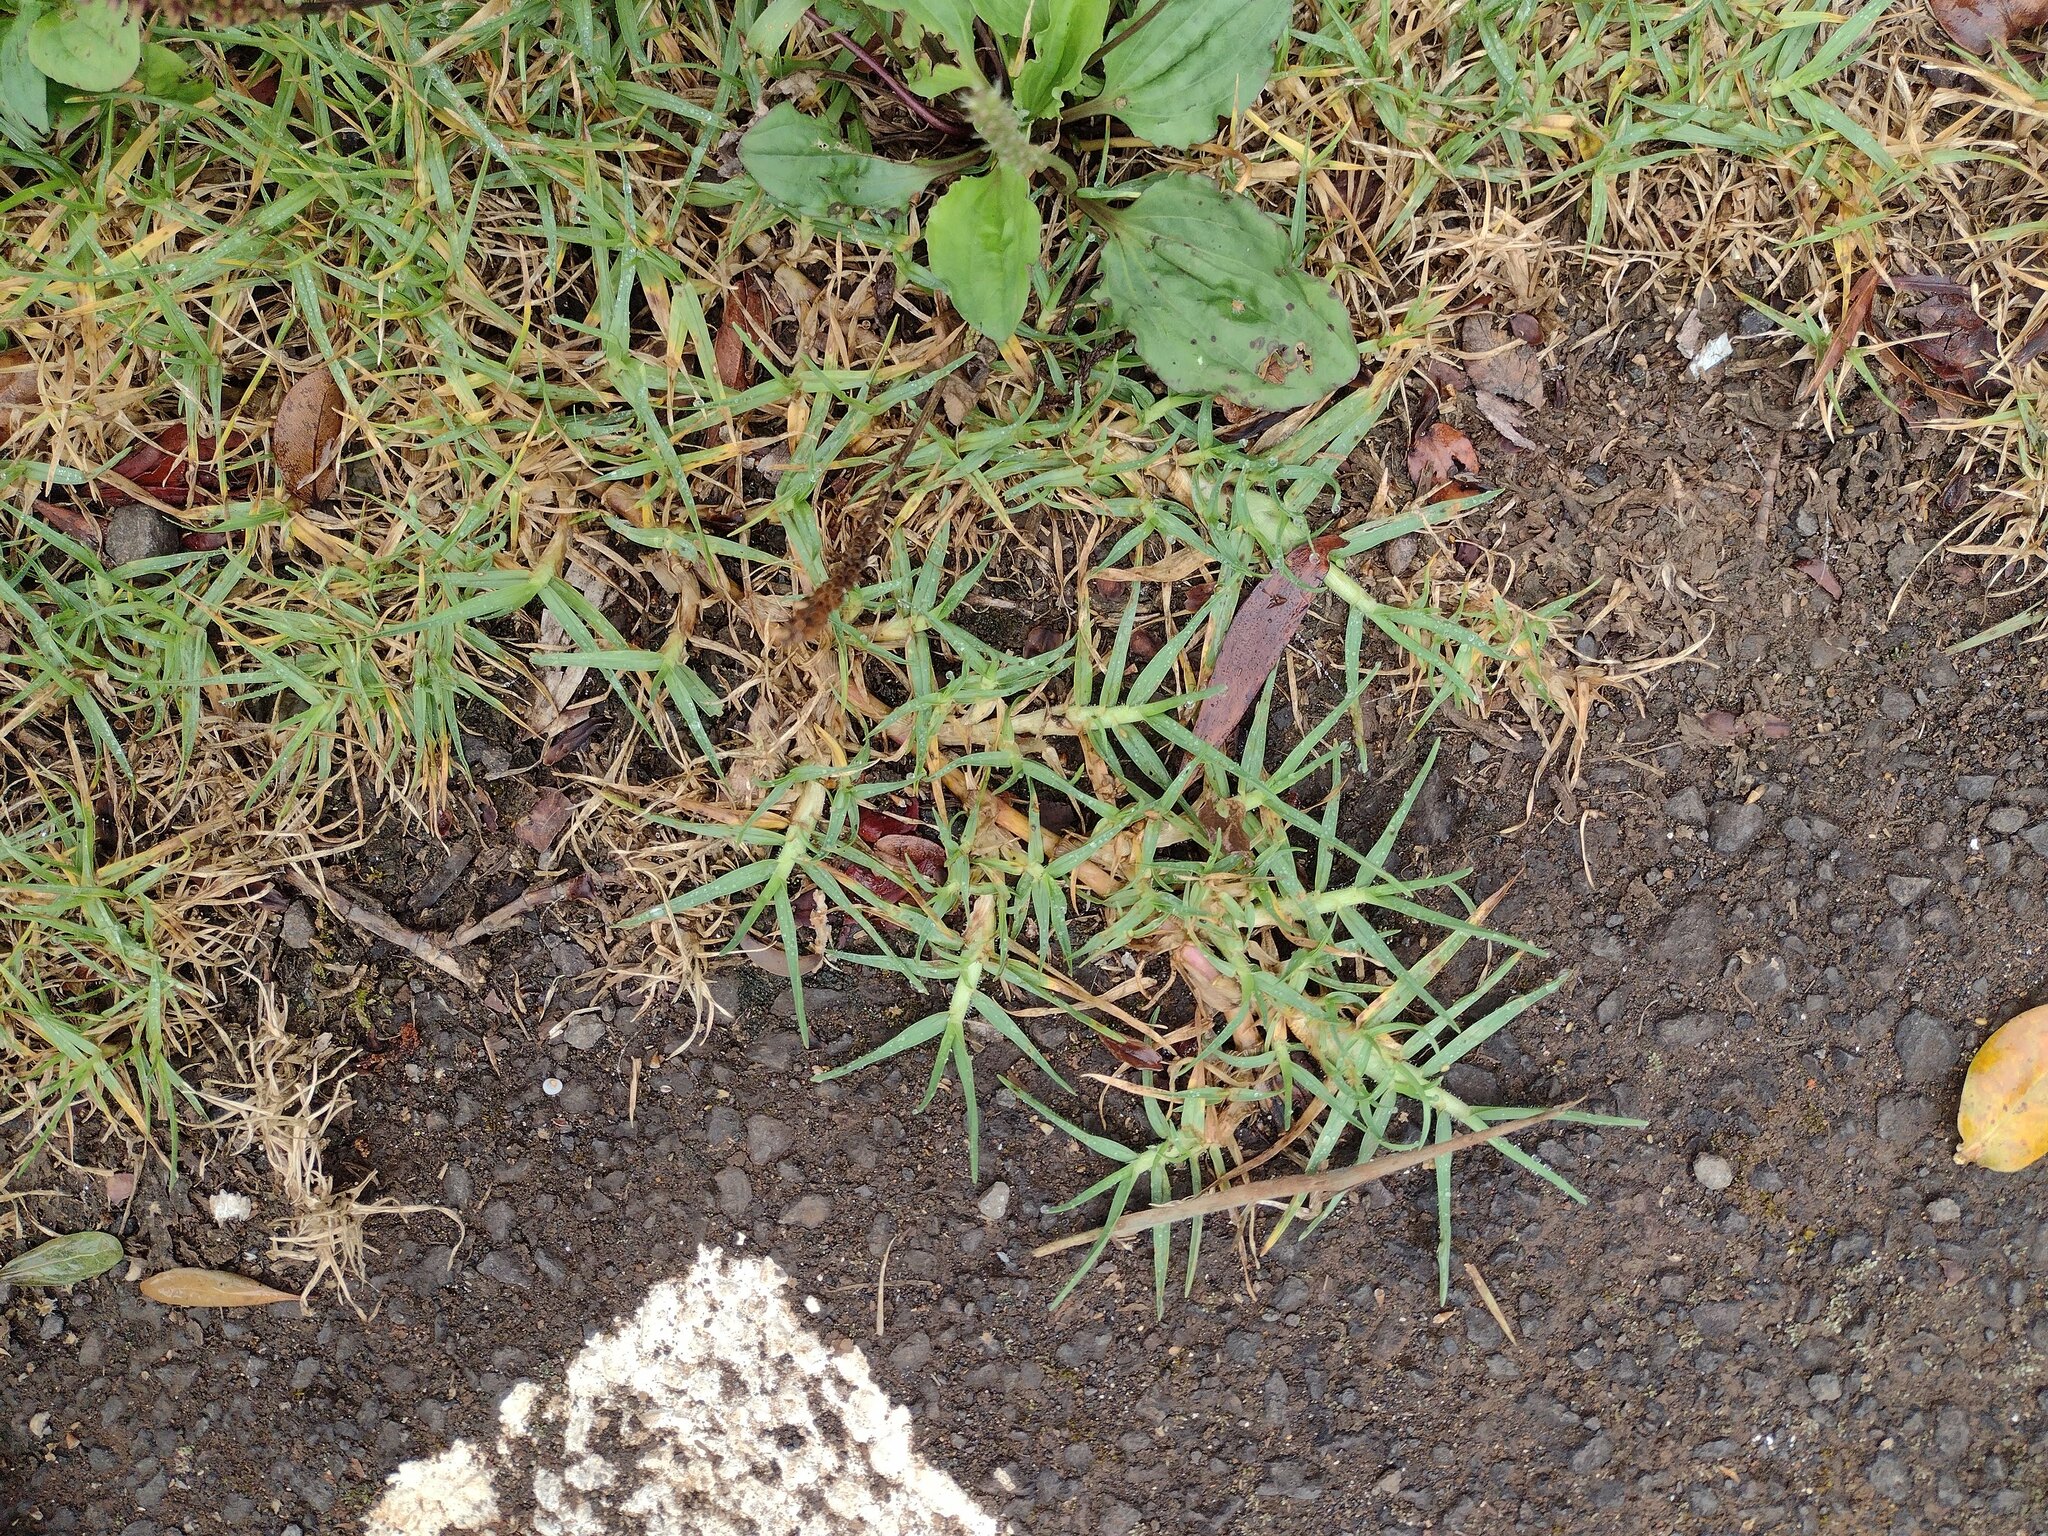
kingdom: Plantae
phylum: Tracheophyta
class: Liliopsida
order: Poales
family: Poaceae
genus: Cenchrus
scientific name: Cenchrus clandestinus
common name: Kikuyugrass
